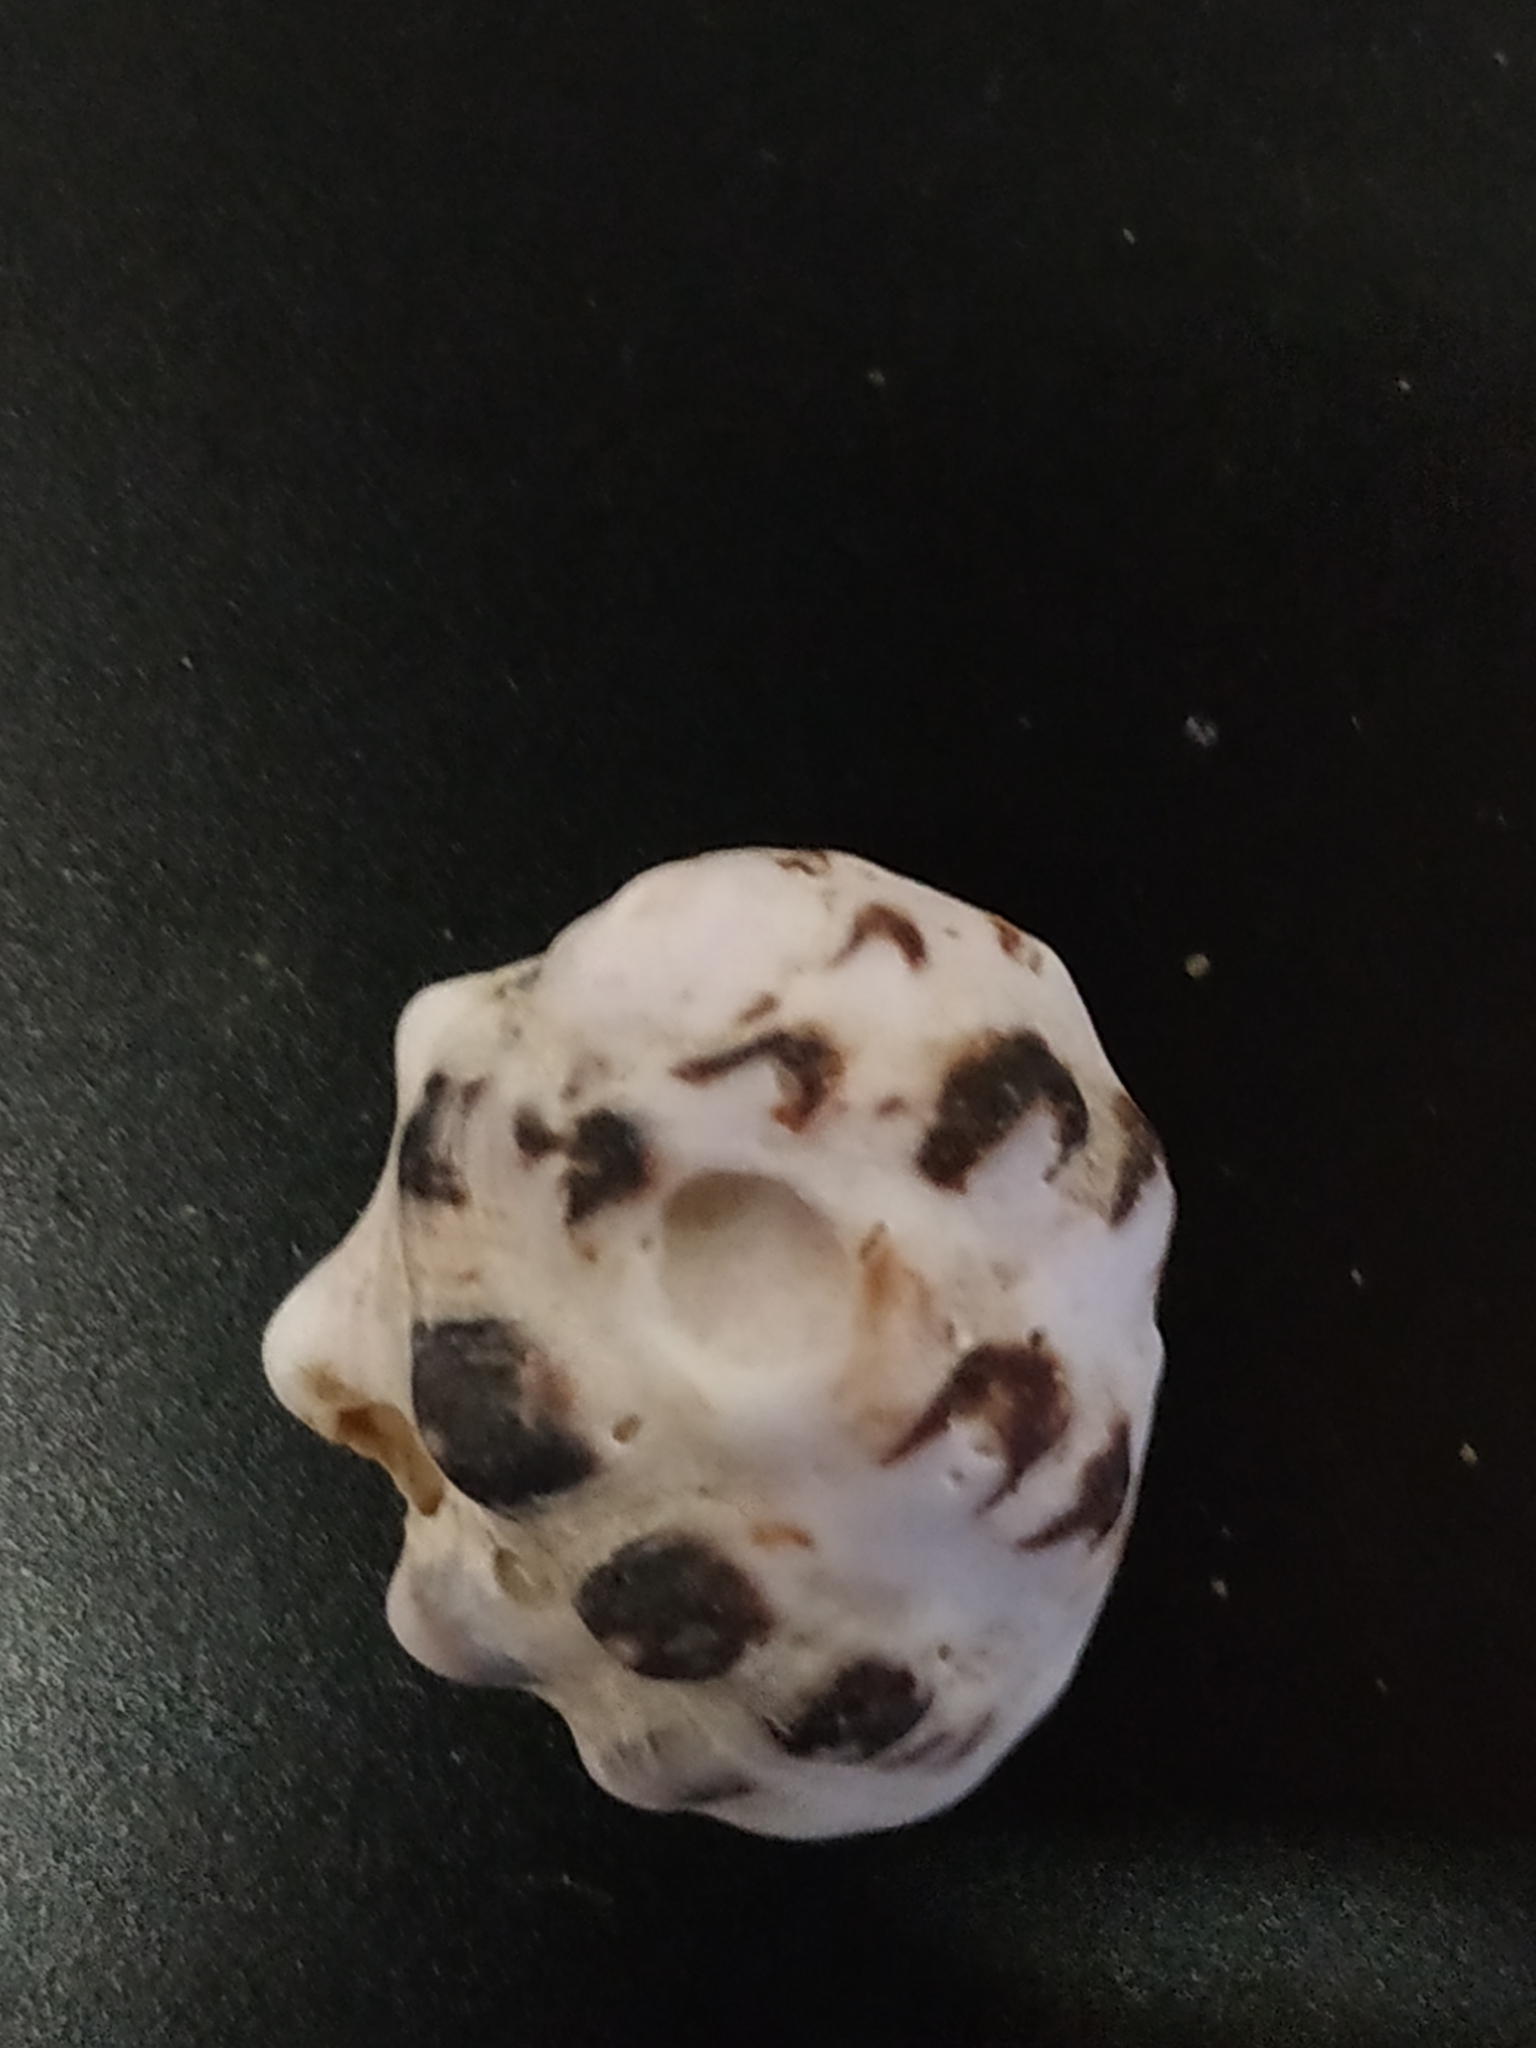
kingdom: Animalia
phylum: Mollusca
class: Gastropoda
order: Neogastropoda
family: Muricidae
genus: Drupa
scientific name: Drupa morum
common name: Purple drupe
